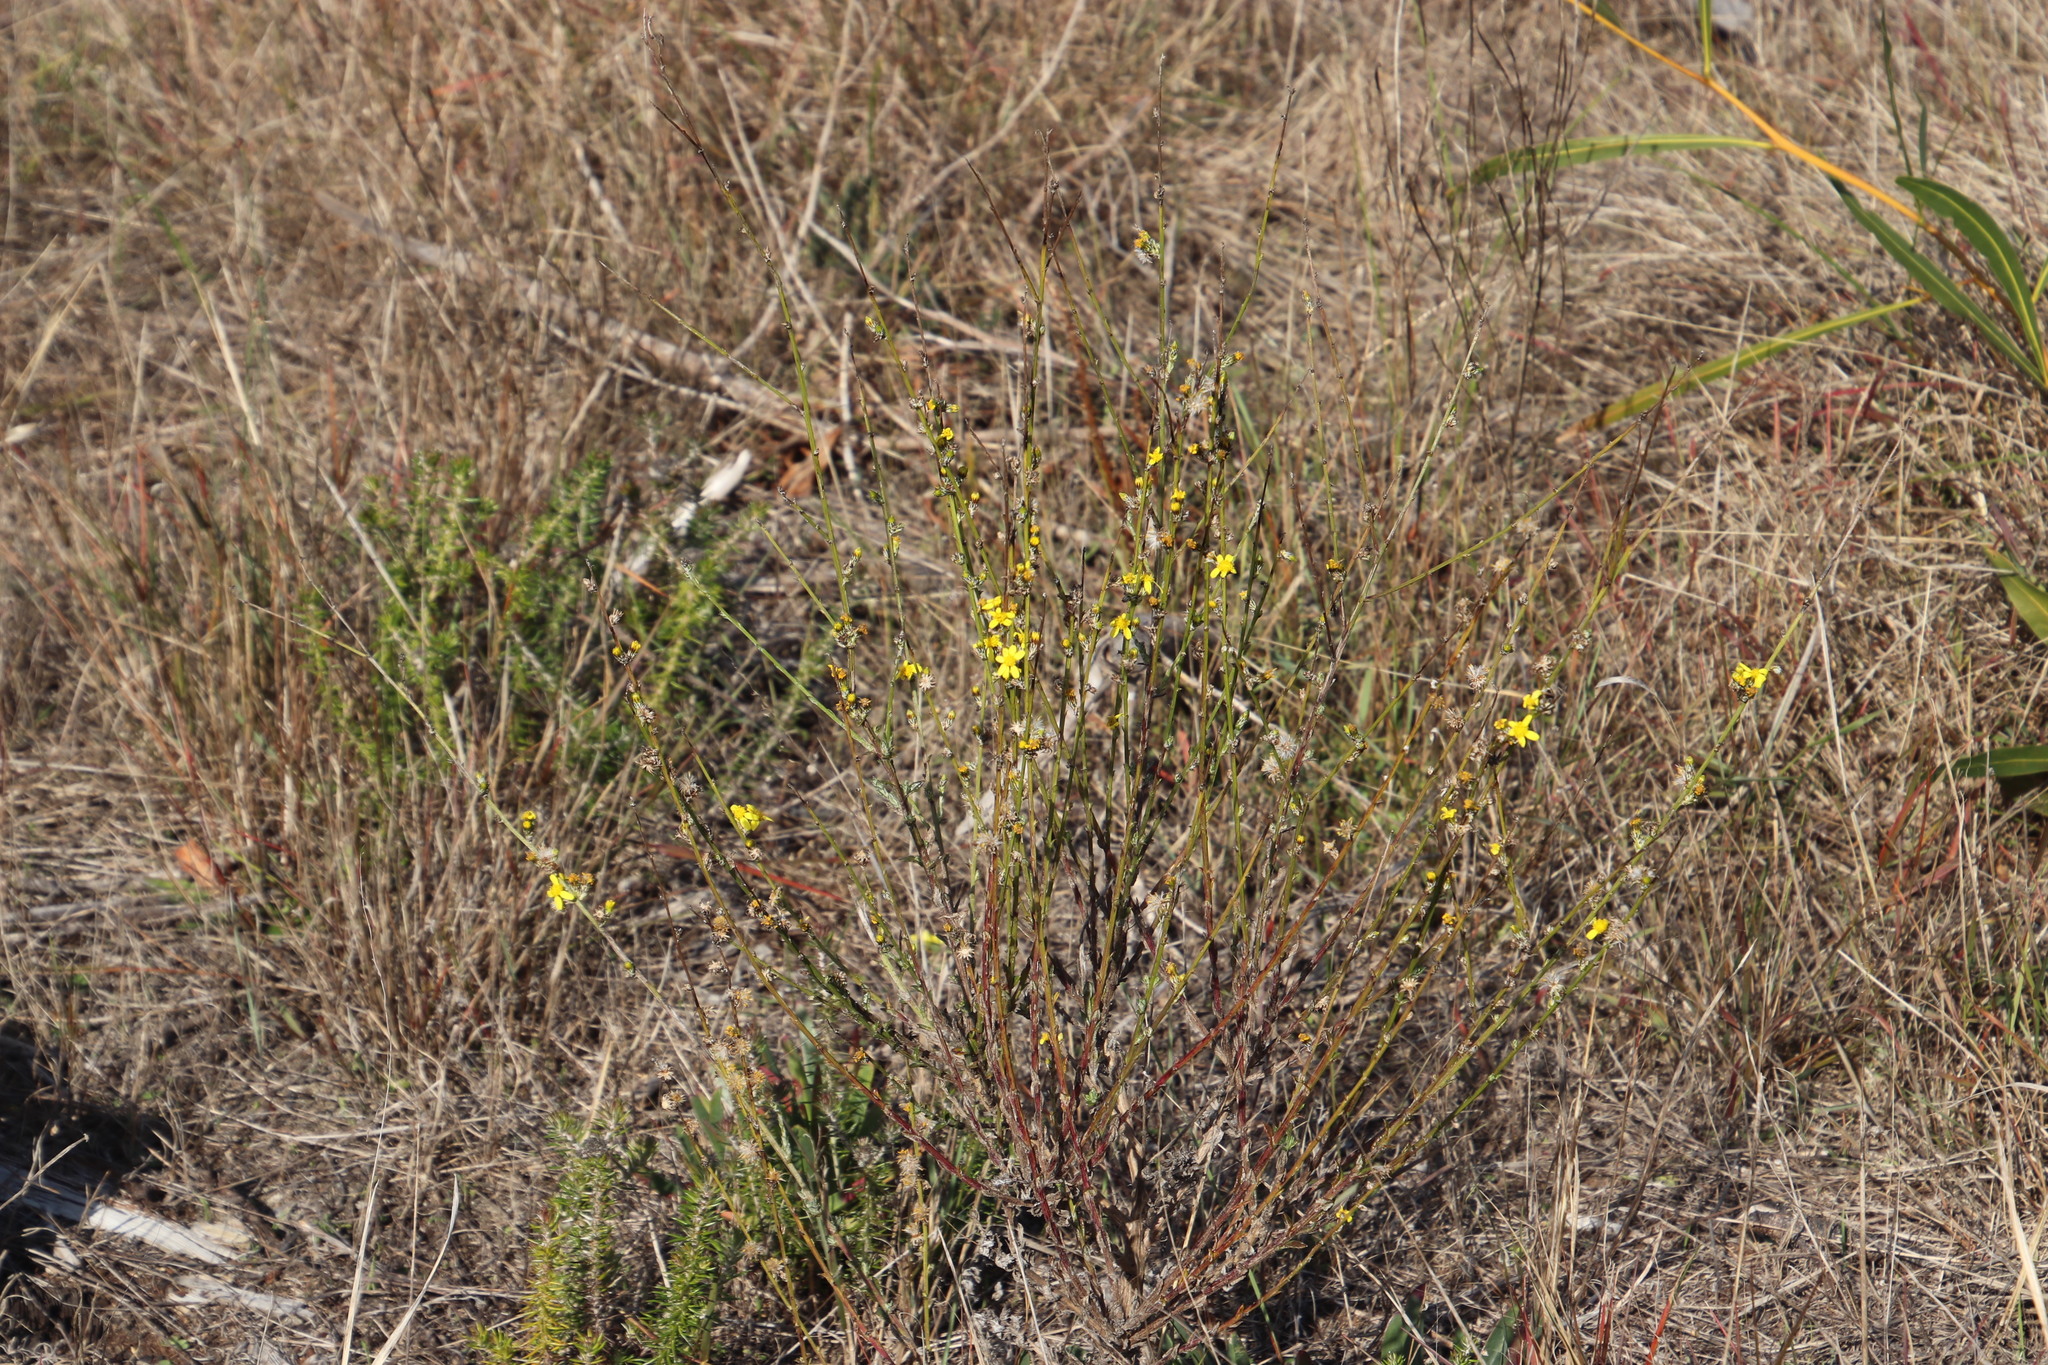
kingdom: Plantae
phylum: Tracheophyta
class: Magnoliopsida
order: Asterales
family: Asteraceae
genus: Senecio
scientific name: Senecio pubigerus
